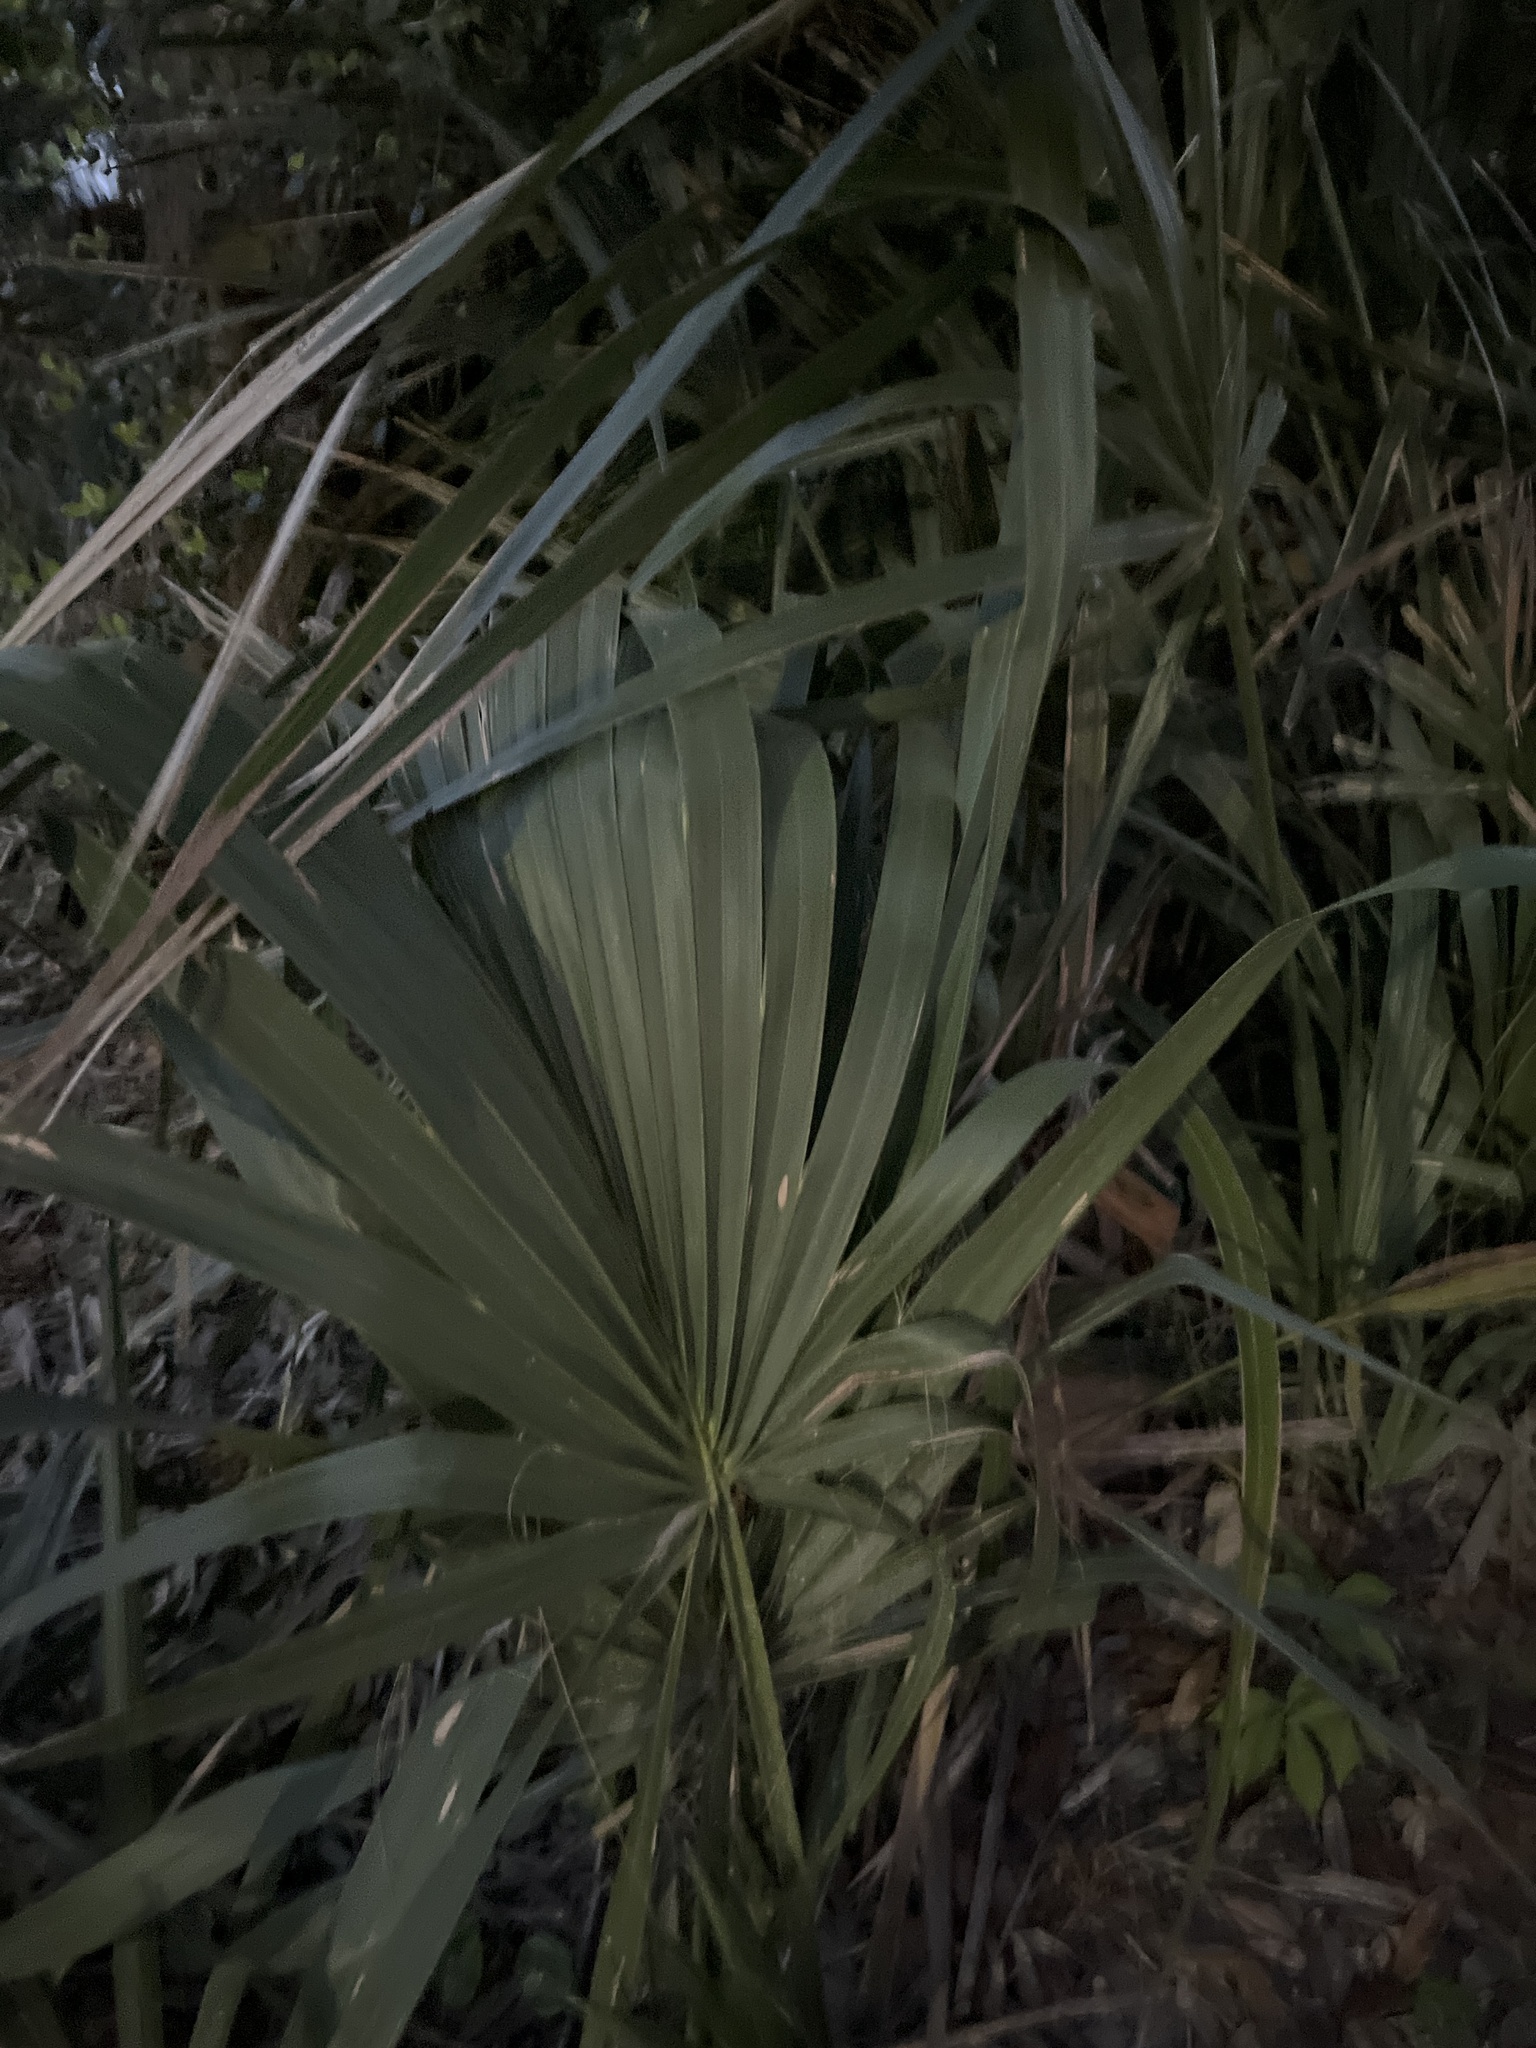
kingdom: Plantae
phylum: Tracheophyta
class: Liliopsida
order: Arecales
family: Arecaceae
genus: Sabal
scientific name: Sabal palmetto
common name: Blue palmetto
